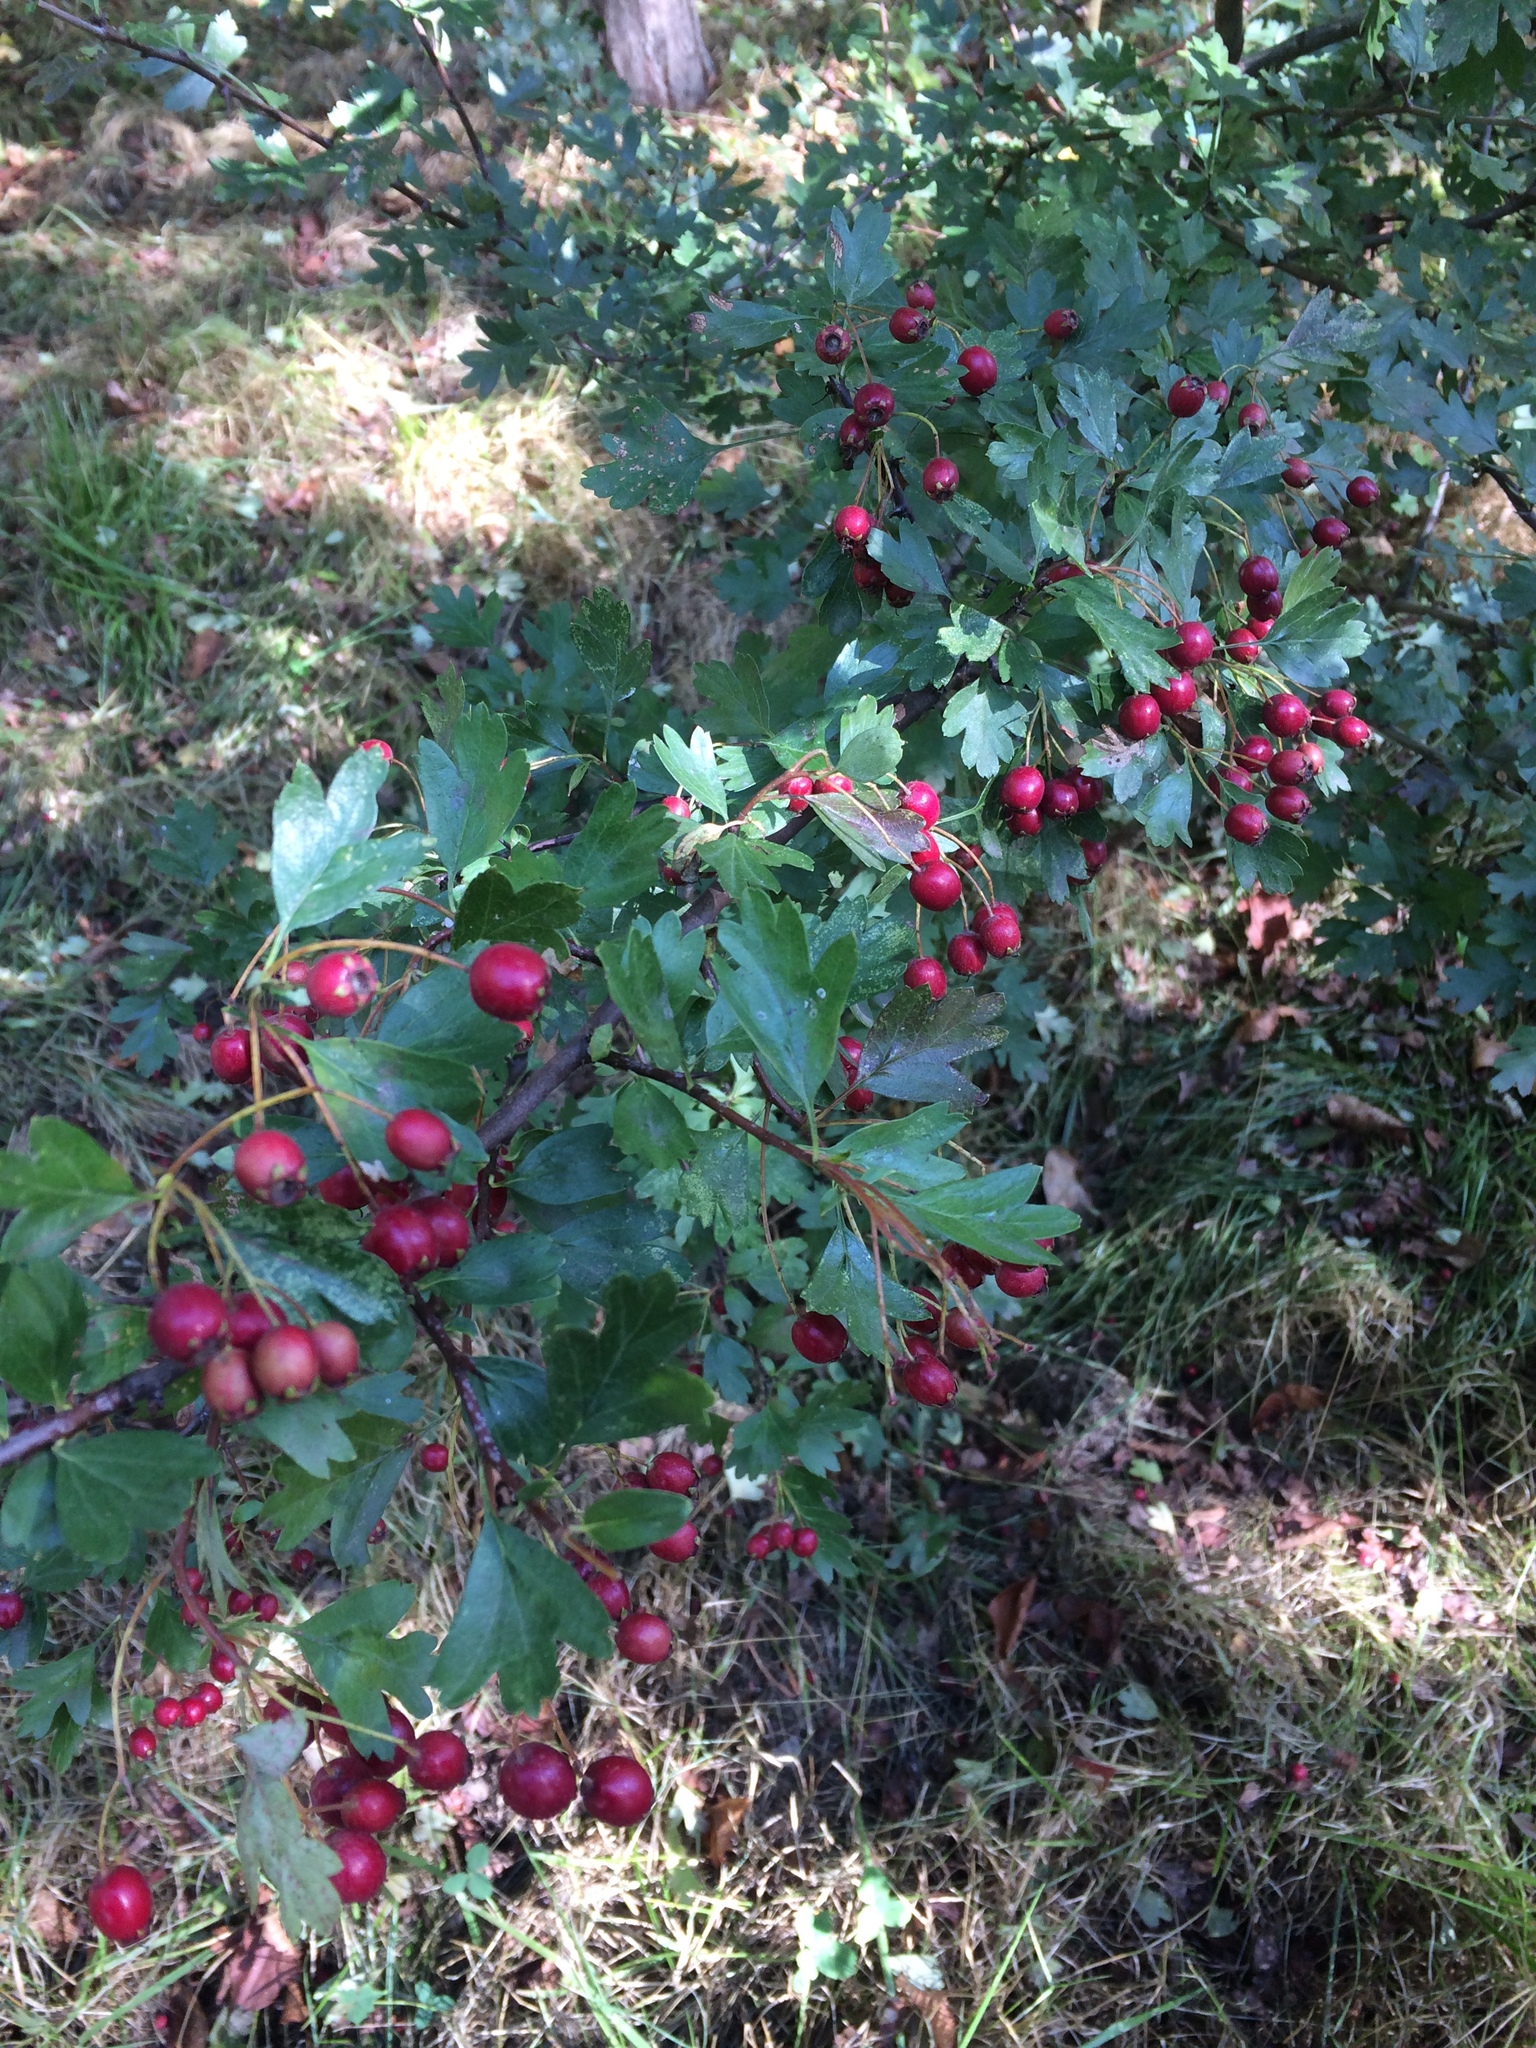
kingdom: Plantae
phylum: Tracheophyta
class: Magnoliopsida
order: Rosales
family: Rosaceae
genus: Crataegus
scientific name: Crataegus monogyna
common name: Hawthorn
